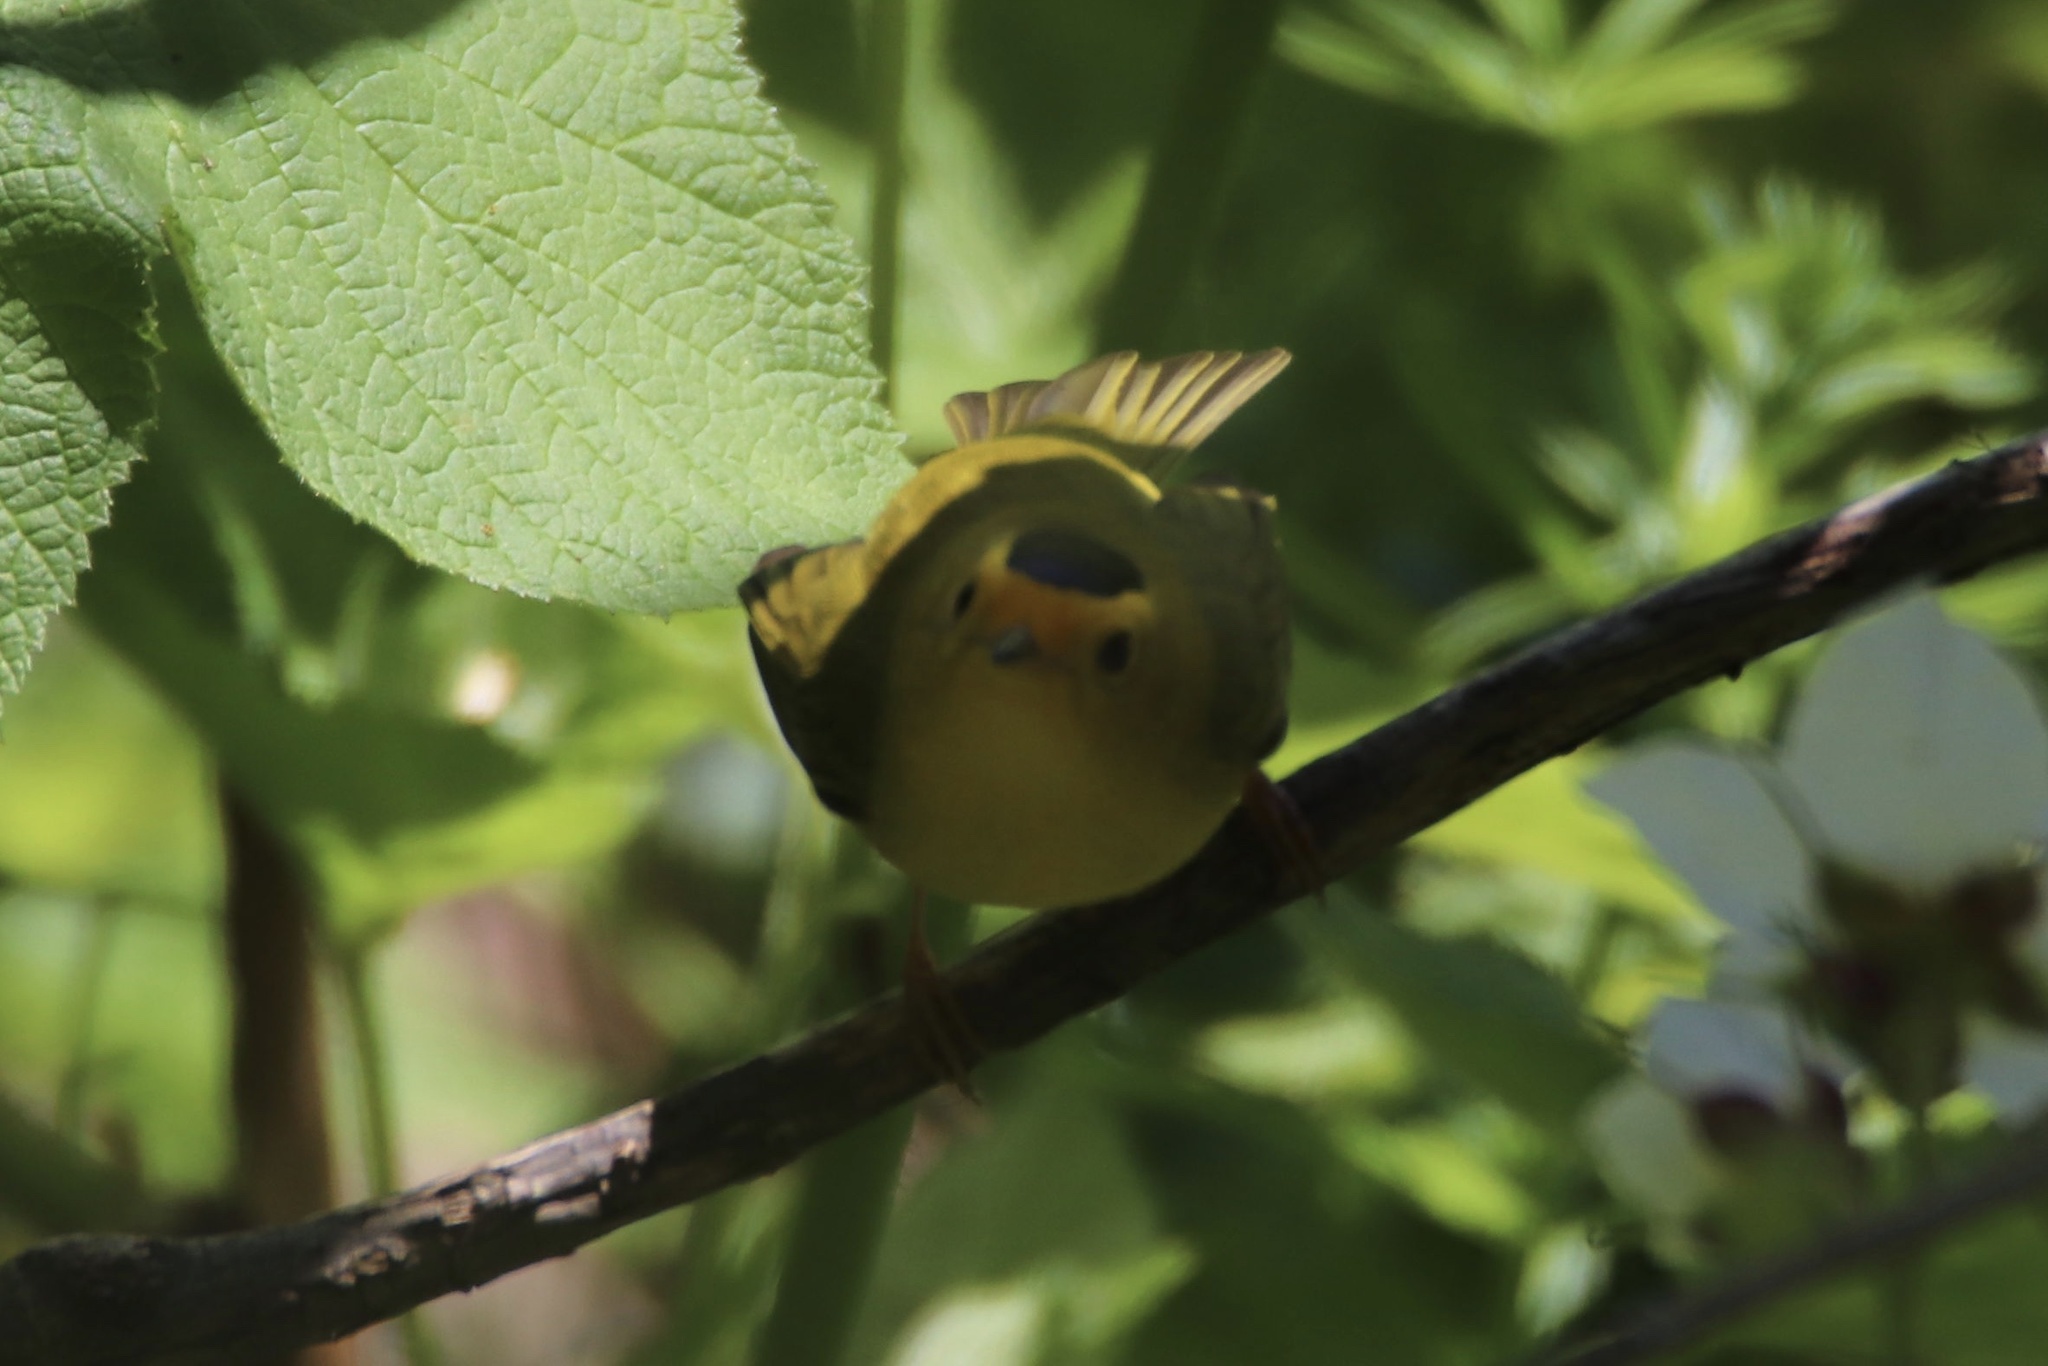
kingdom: Animalia
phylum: Chordata
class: Aves
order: Passeriformes
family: Parulidae
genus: Cardellina
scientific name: Cardellina pusilla
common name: Wilson's warbler
